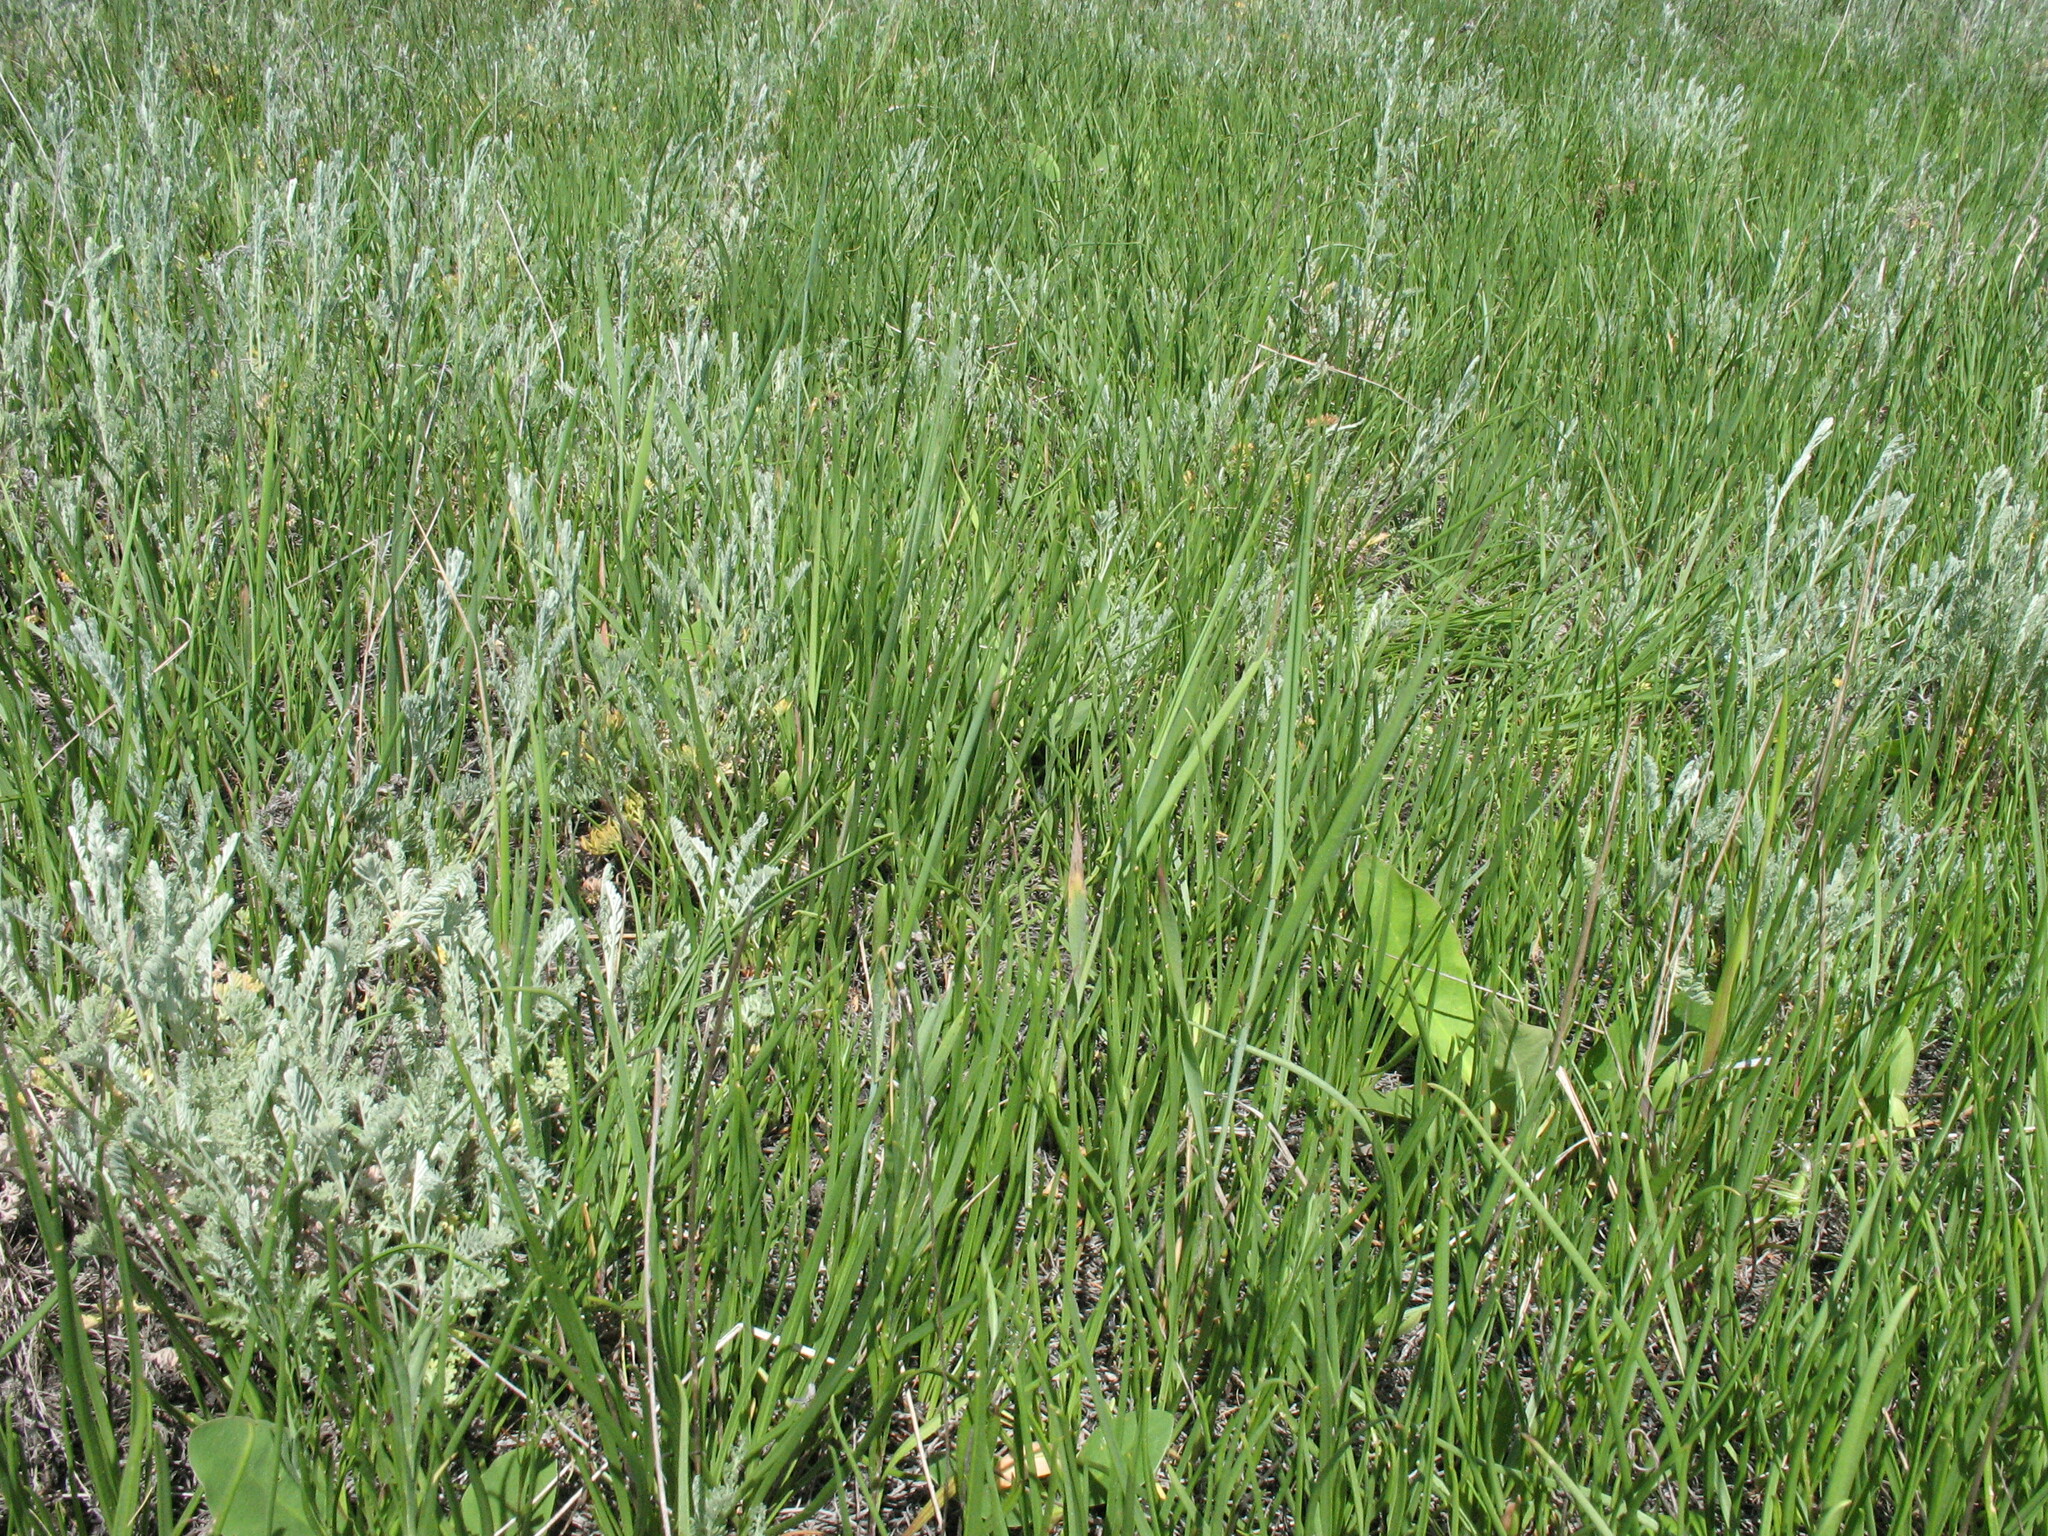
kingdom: Plantae
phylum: Tracheophyta
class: Magnoliopsida
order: Lamiales
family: Plantaginaceae
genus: Plantago
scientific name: Plantago salsa
